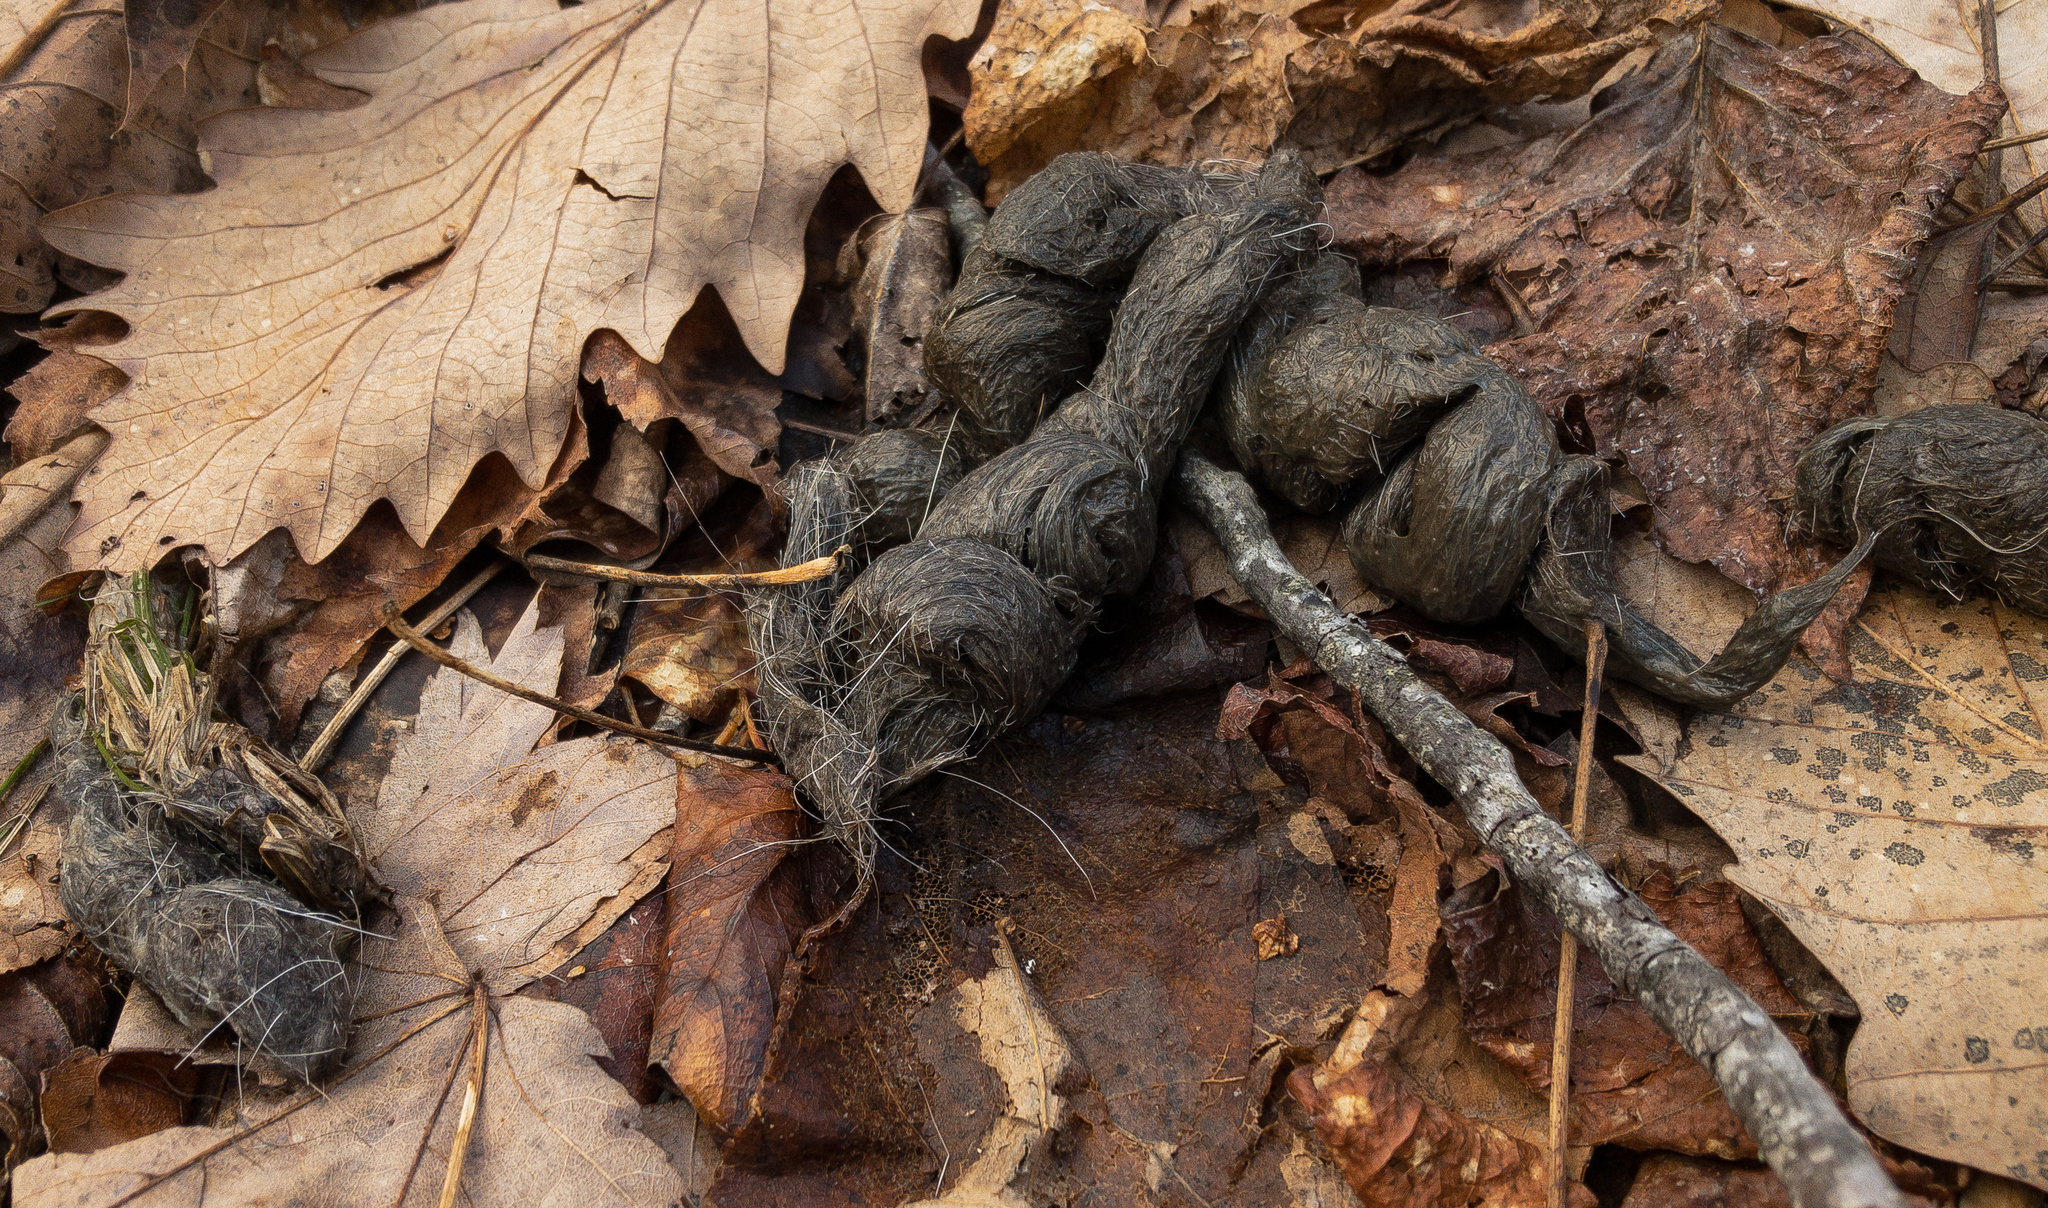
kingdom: Animalia
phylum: Chordata
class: Mammalia
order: Carnivora
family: Canidae
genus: Canis
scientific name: Canis latrans
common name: Coyote
